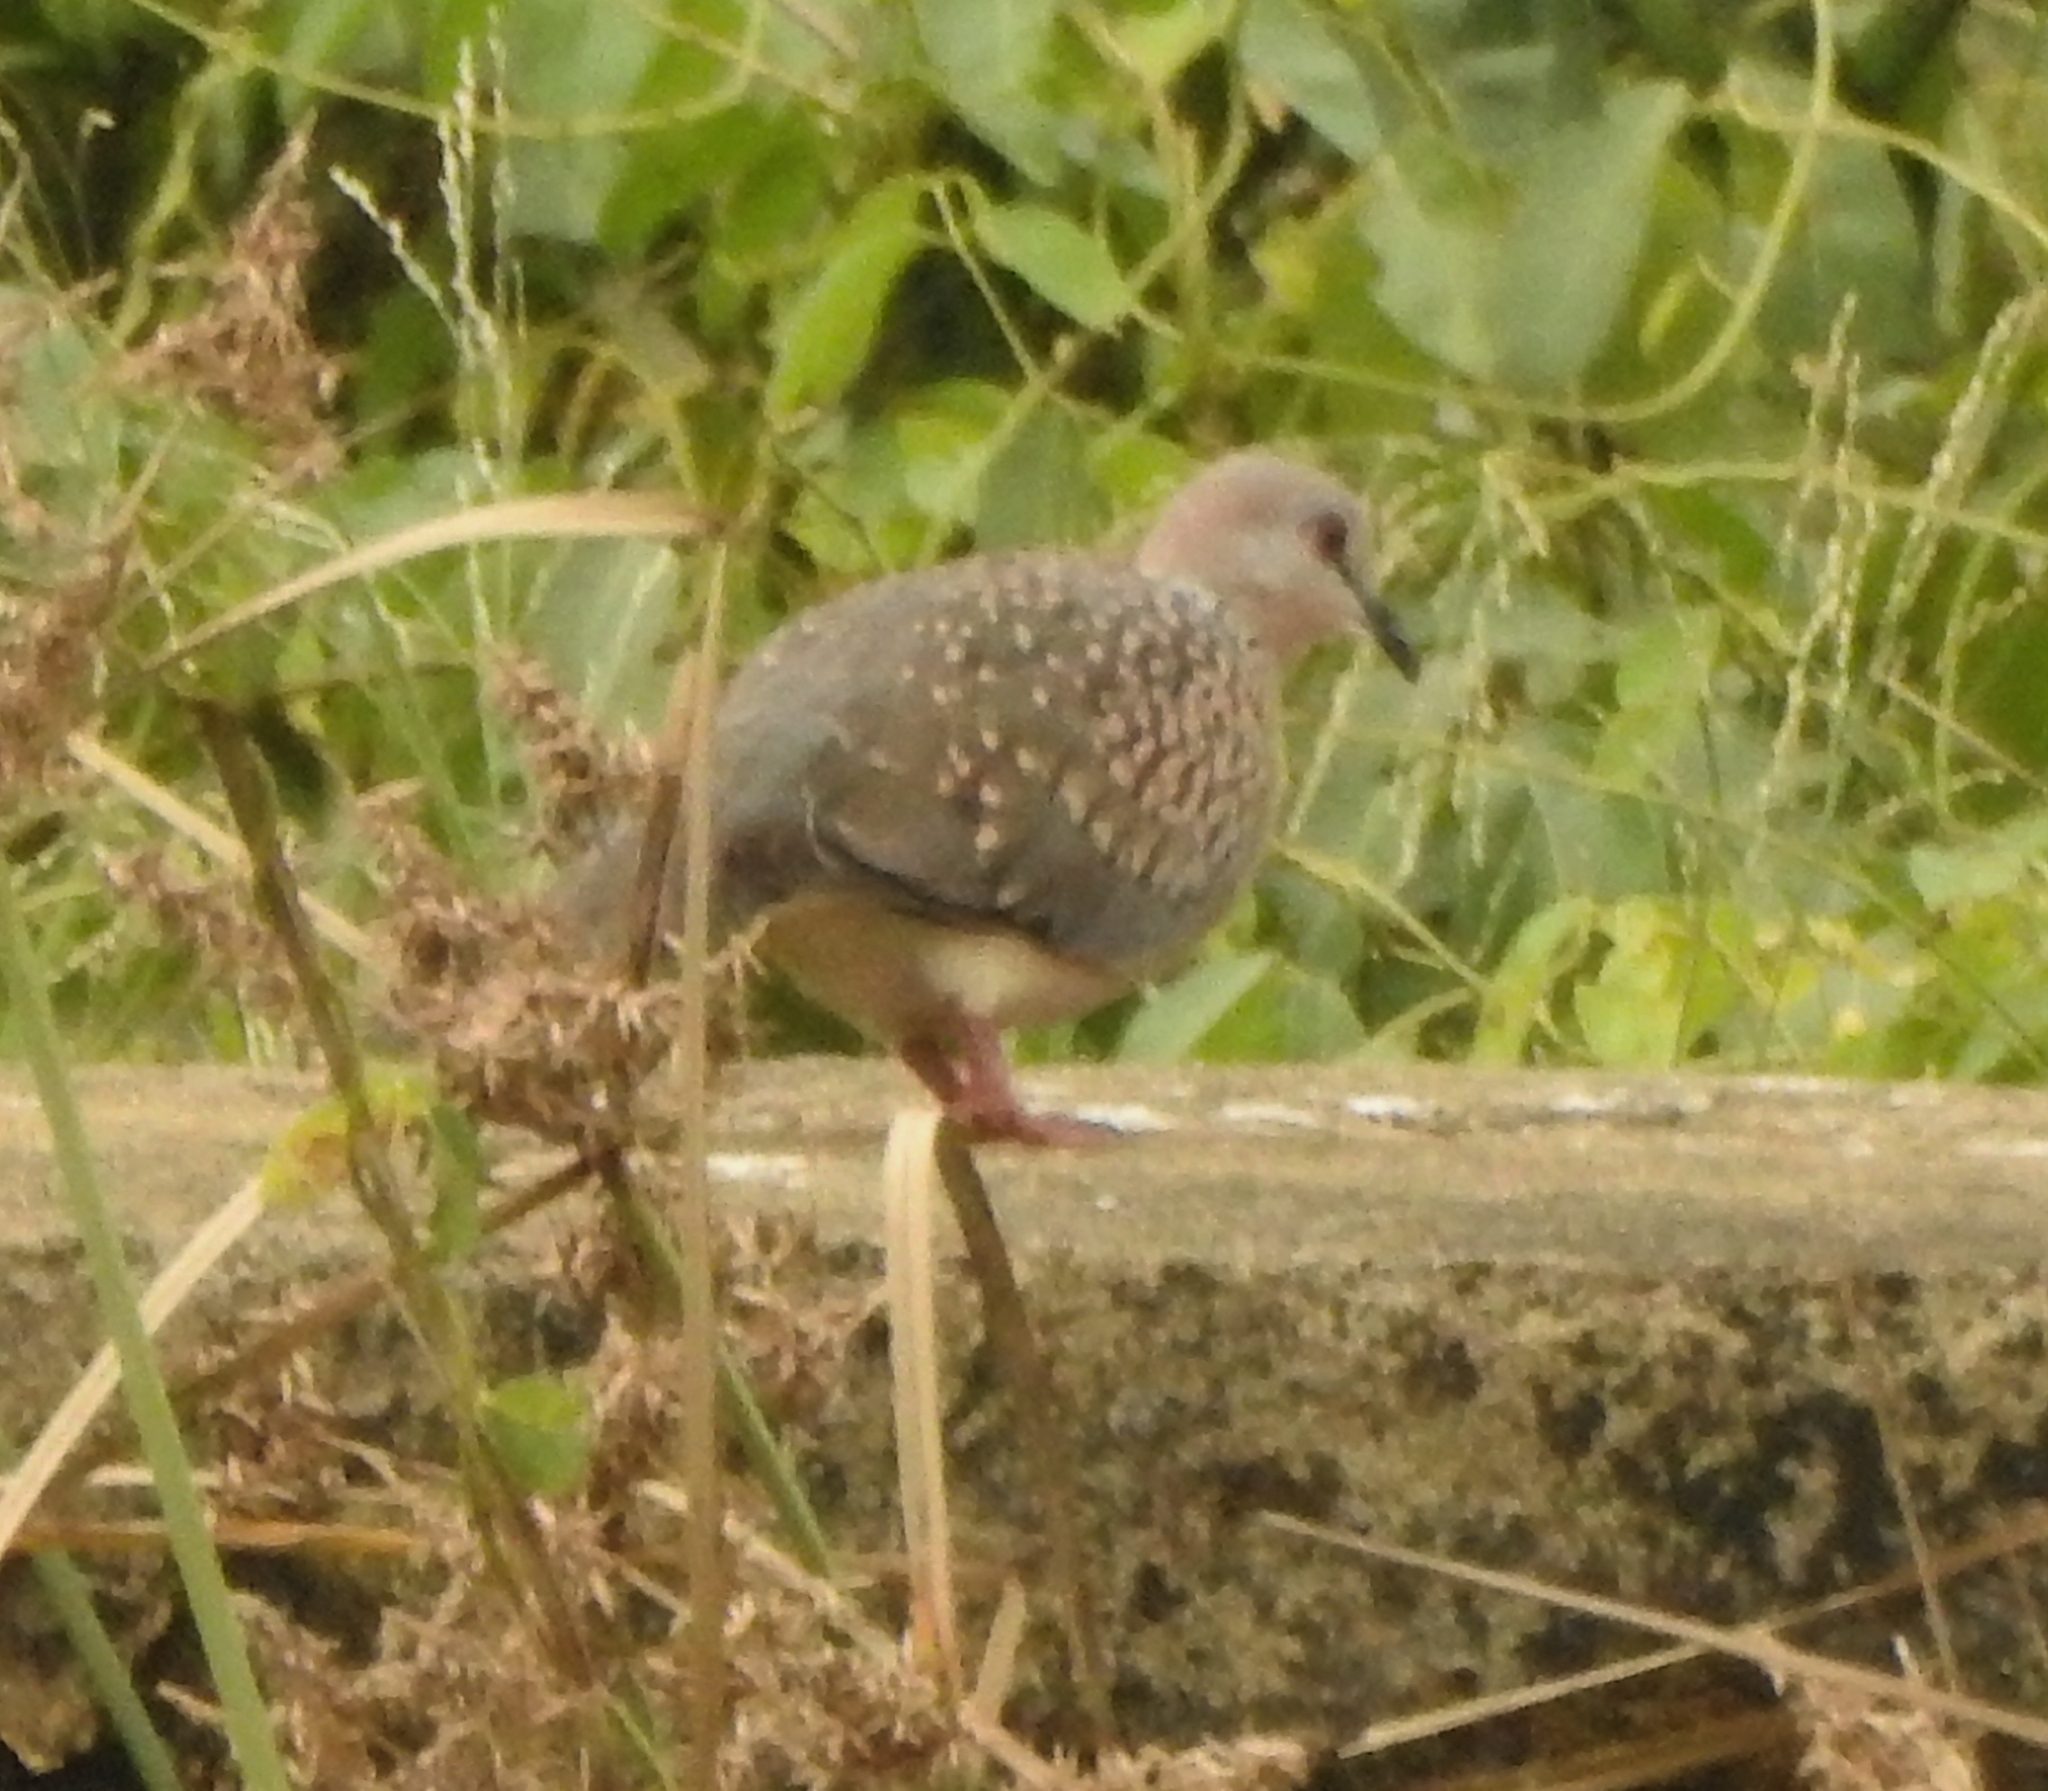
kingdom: Animalia
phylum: Chordata
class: Aves
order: Columbiformes
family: Columbidae
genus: Spilopelia
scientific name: Spilopelia chinensis
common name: Spotted dove
